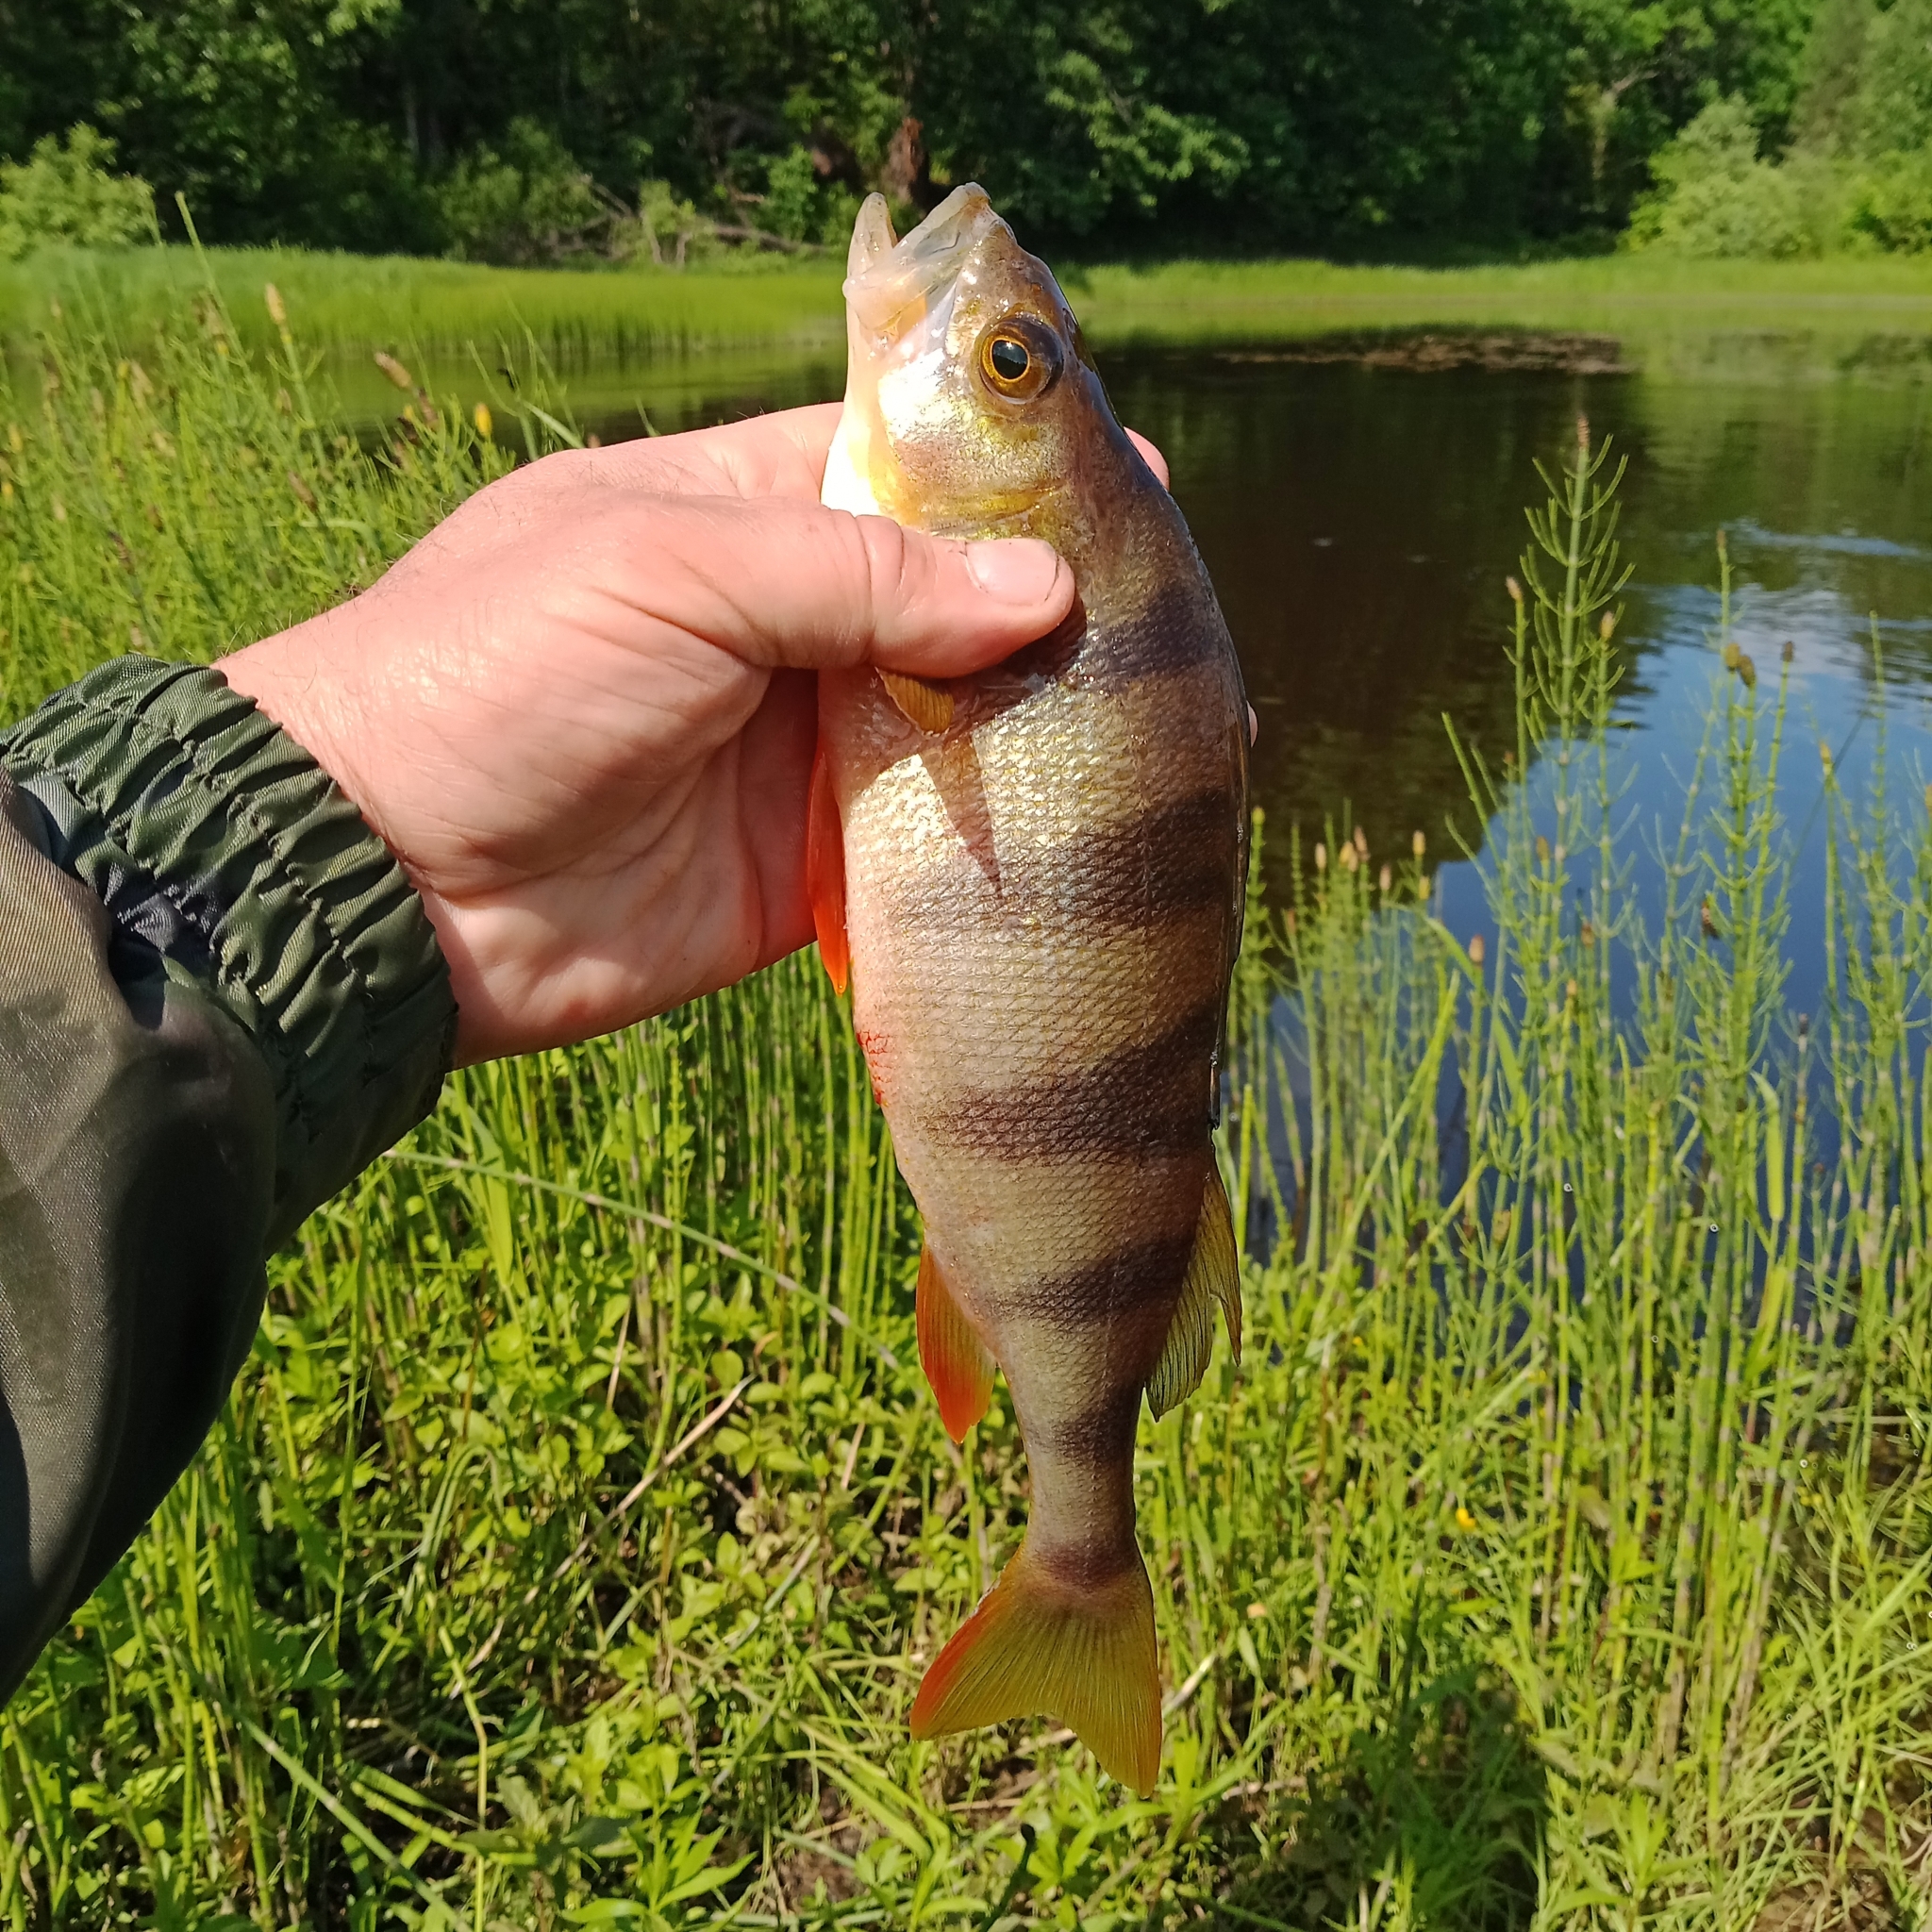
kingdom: Animalia
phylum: Chordata
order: Perciformes
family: Percidae
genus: Perca
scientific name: Perca fluviatilis
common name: Perch
